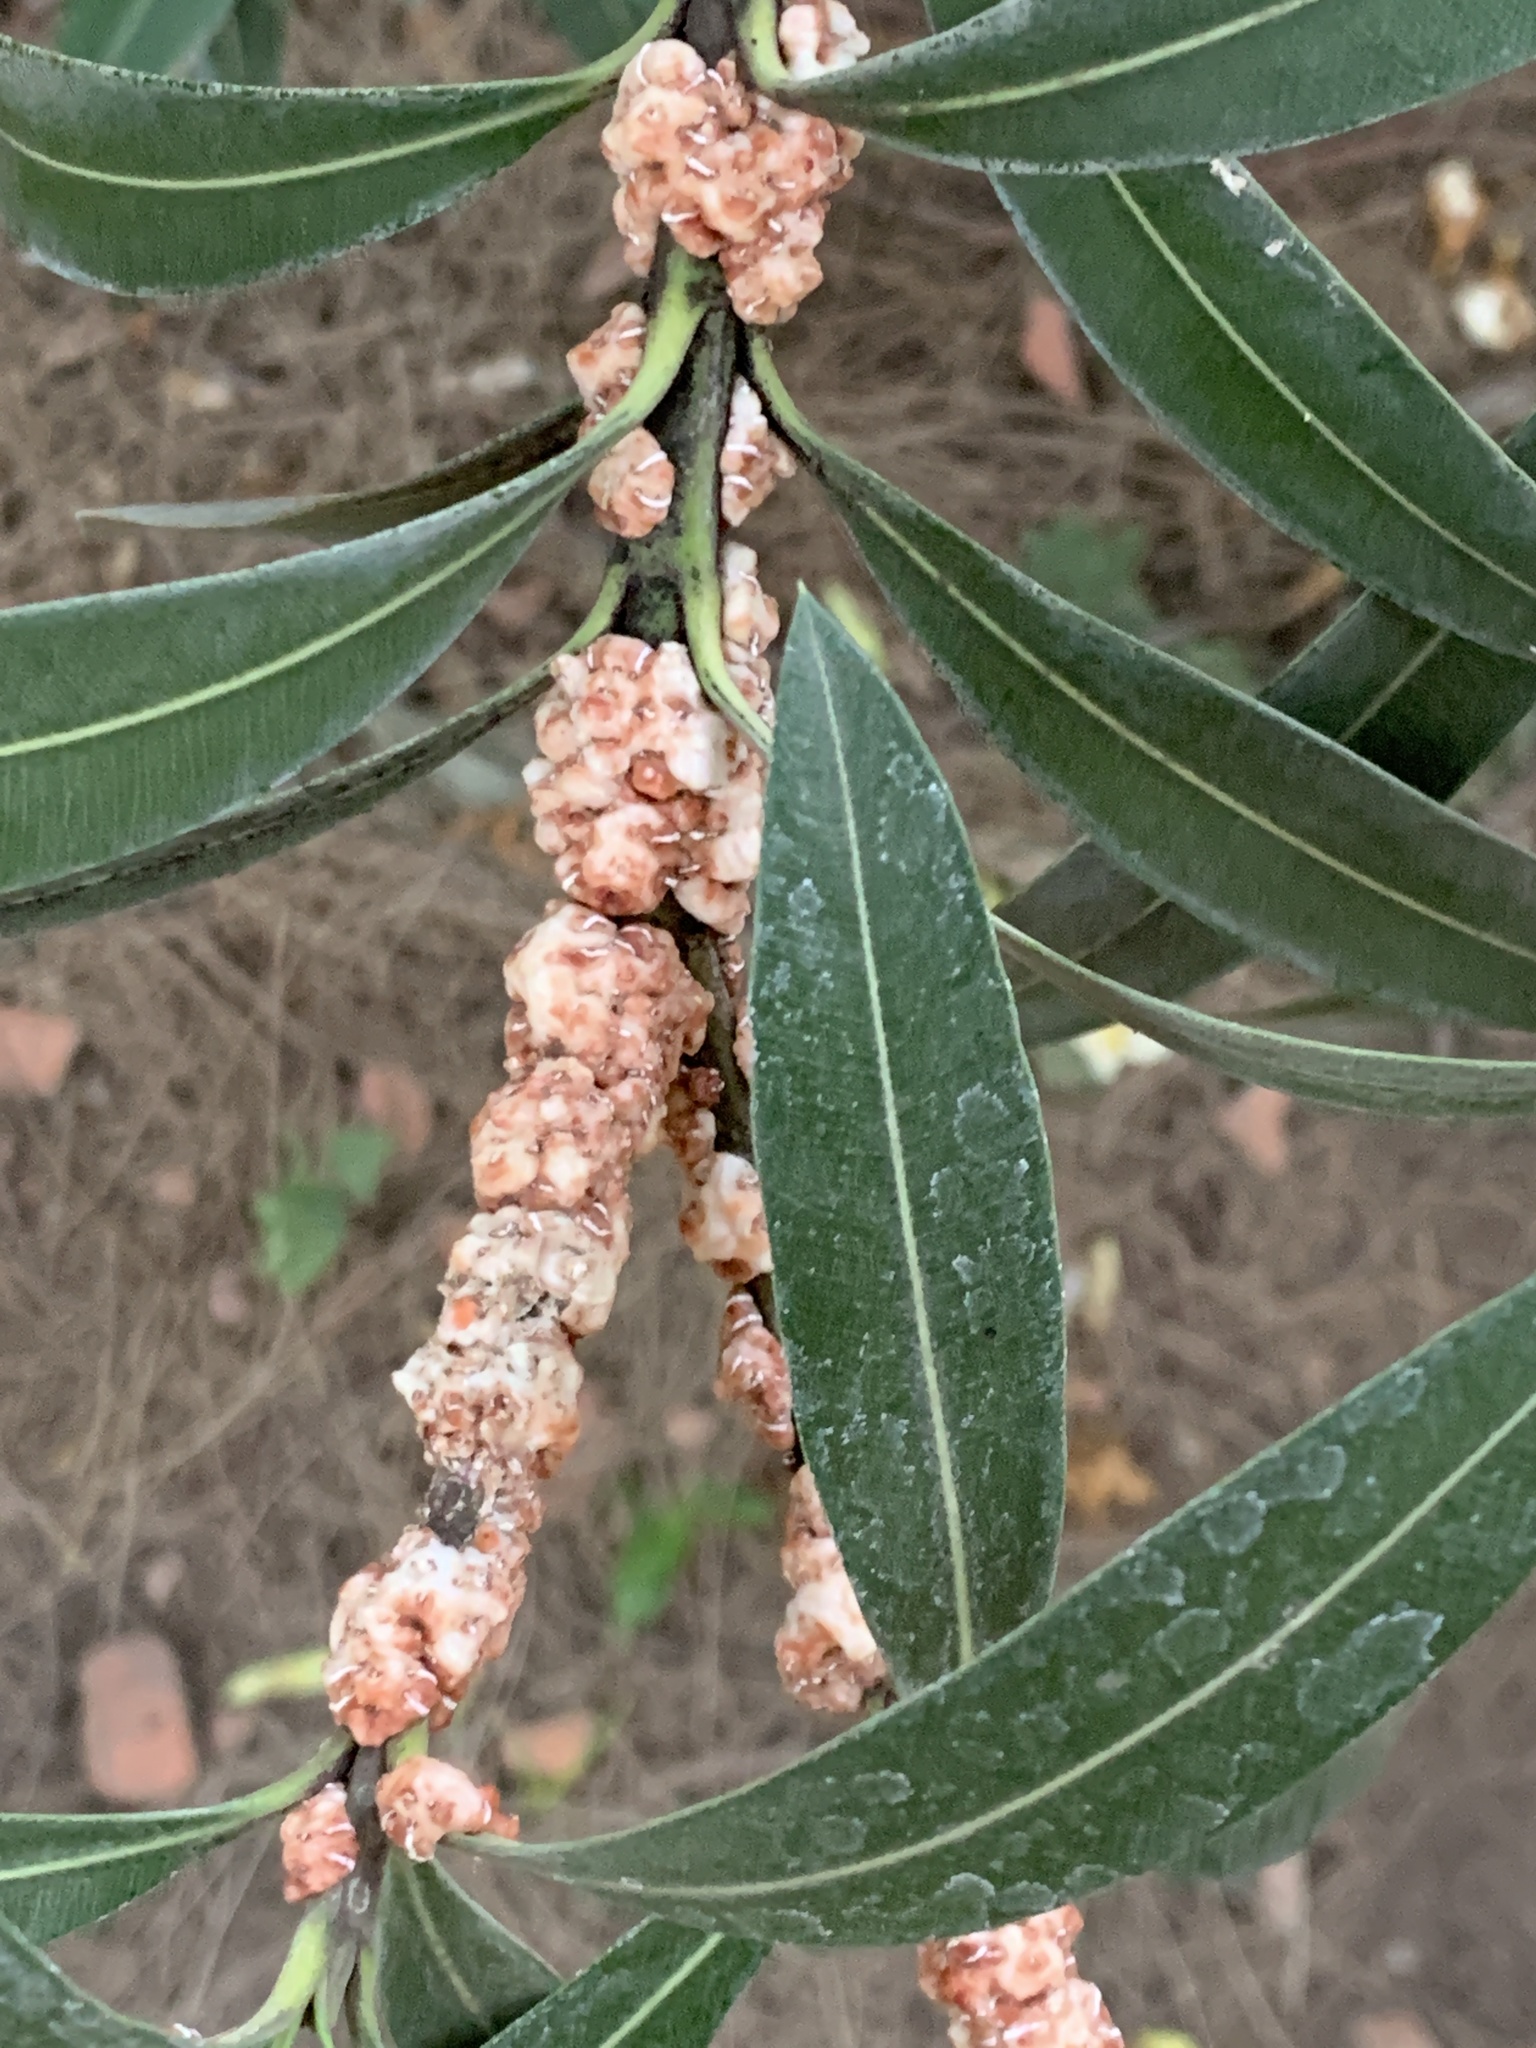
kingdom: Animalia
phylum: Arthropoda
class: Insecta
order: Hemiptera
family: Coccidae
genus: Ceroplastes
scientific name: Ceroplastes grandis
